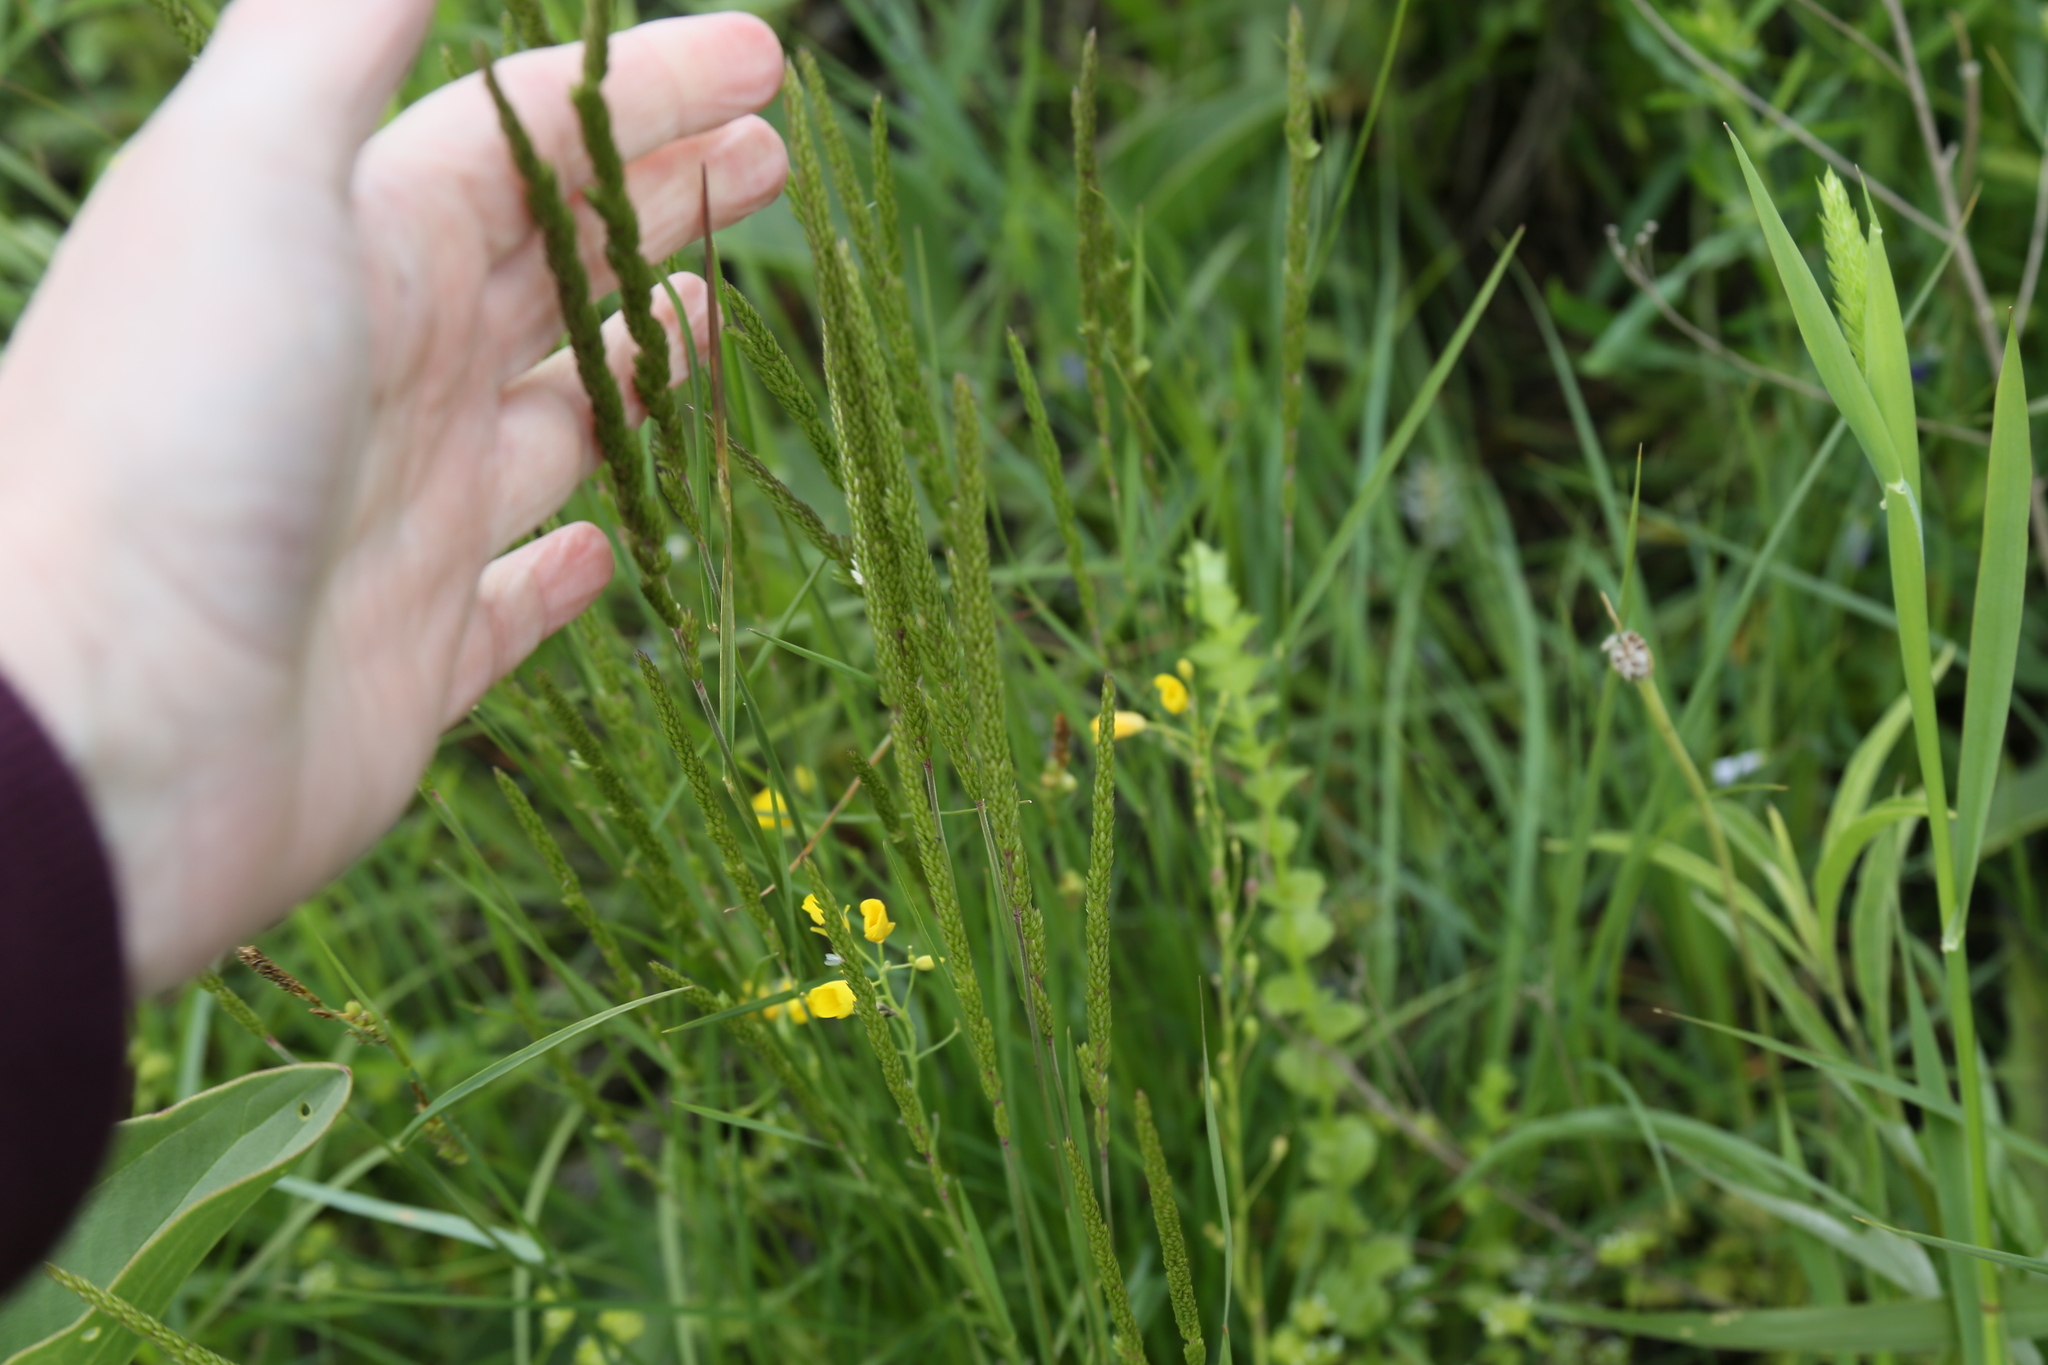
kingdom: Plantae
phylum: Tracheophyta
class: Liliopsida
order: Poales
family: Poaceae
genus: Sphenopholis
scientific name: Sphenopholis obtusata
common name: Prairie grass
